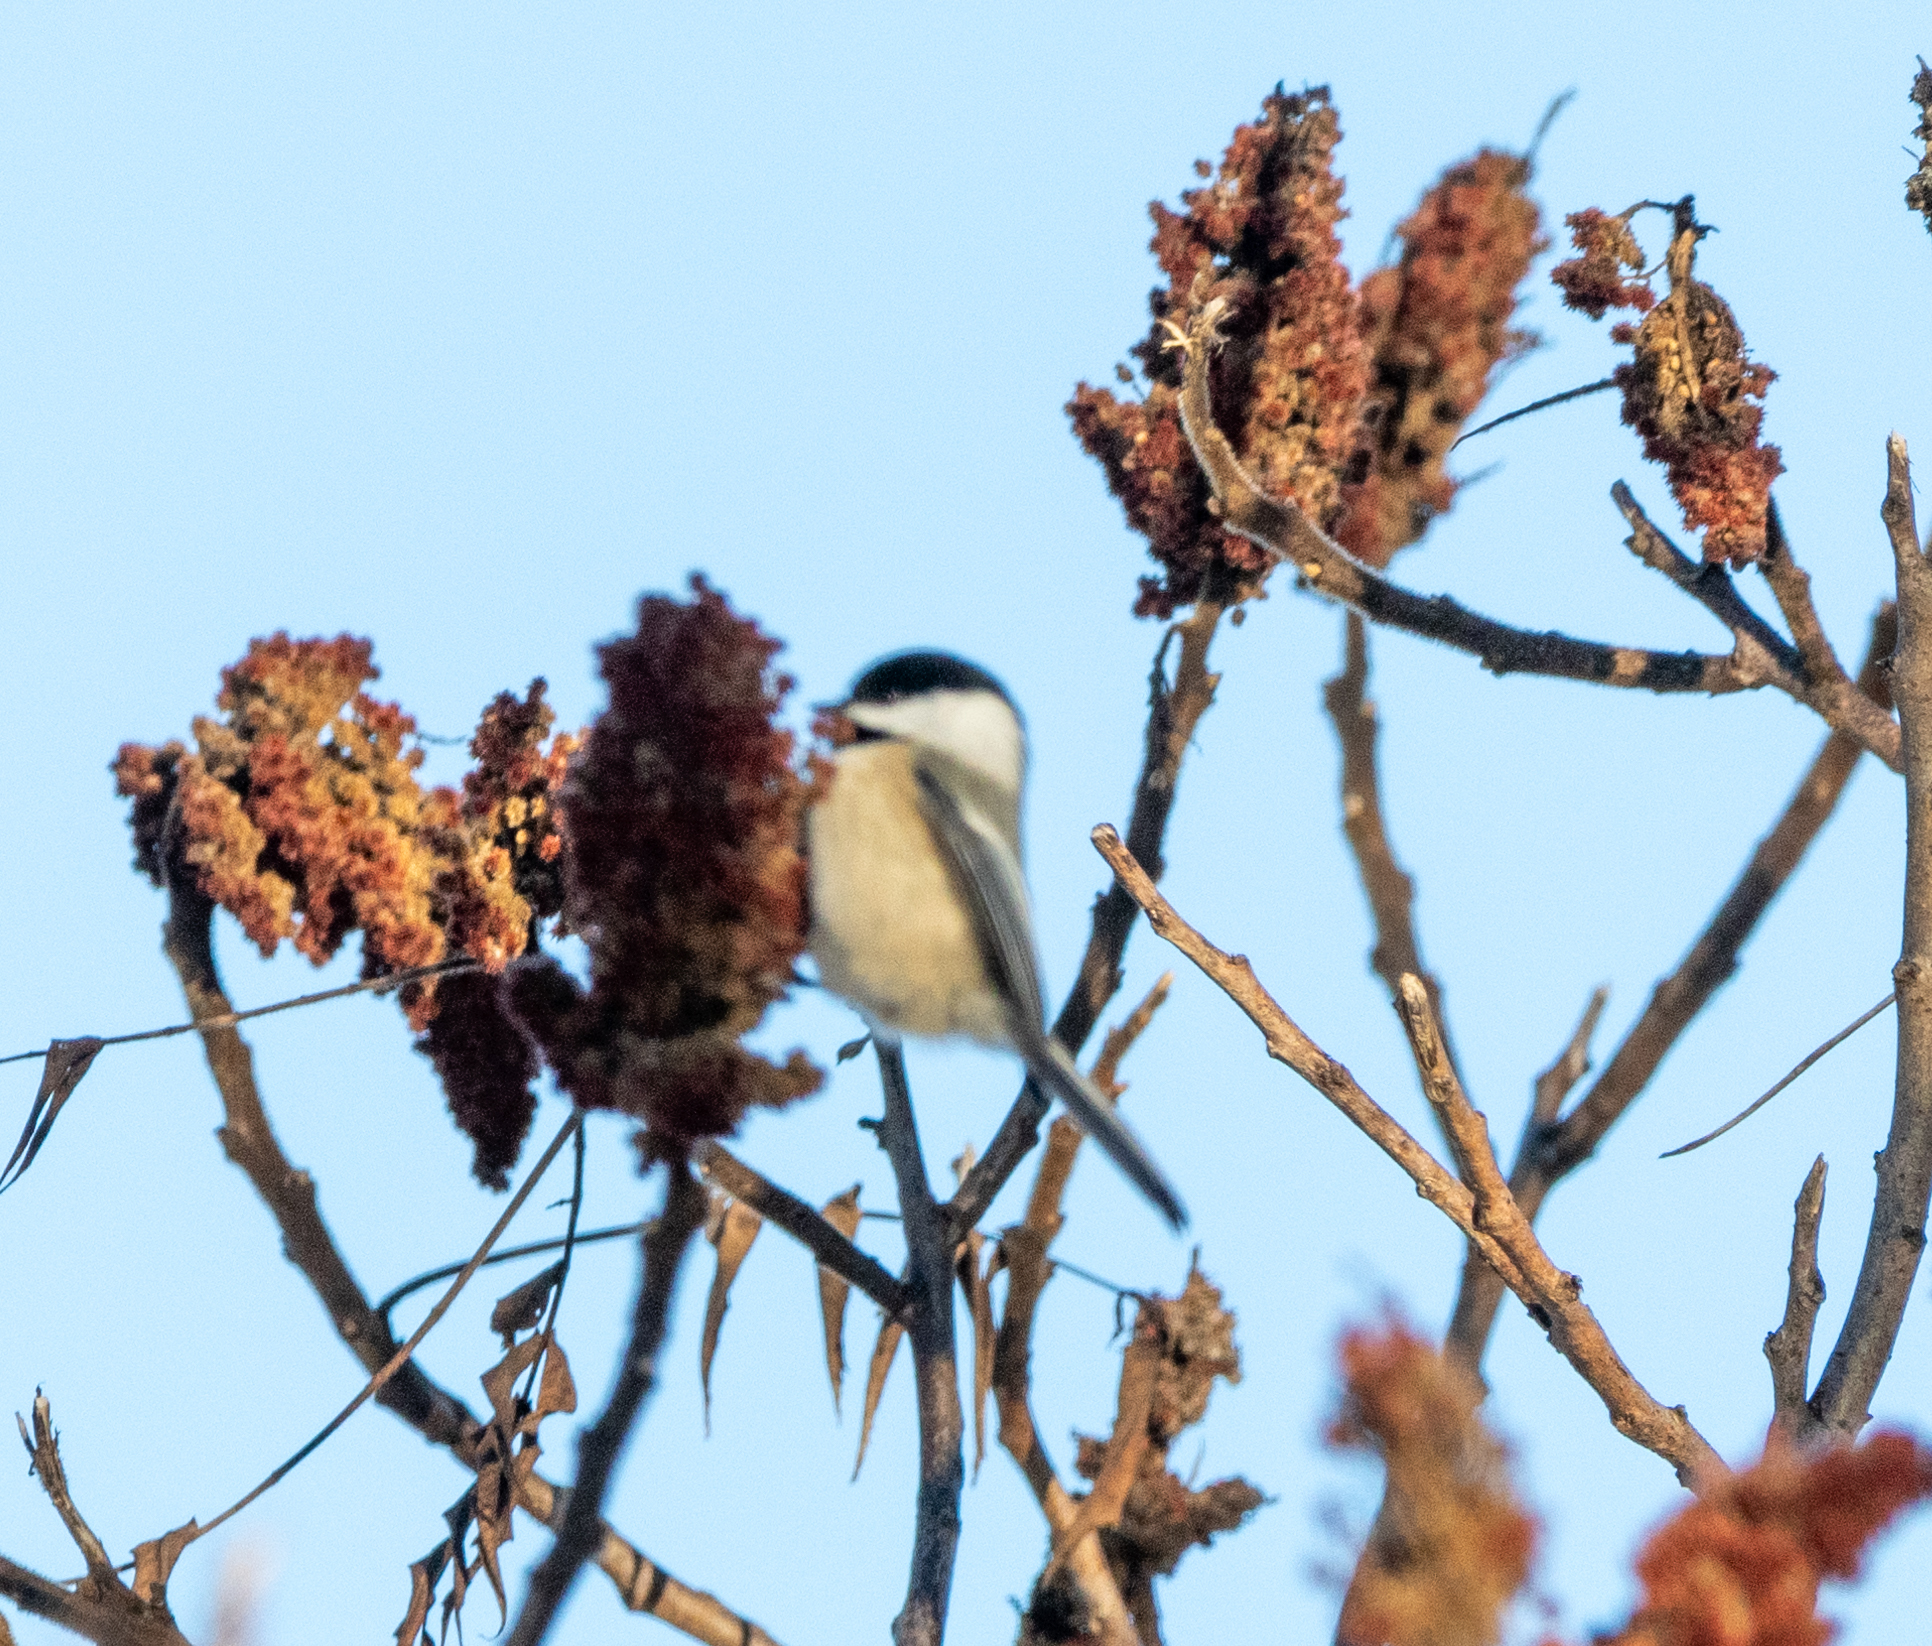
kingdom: Animalia
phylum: Chordata
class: Aves
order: Passeriformes
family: Paridae
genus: Poecile
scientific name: Poecile atricapillus
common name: Black-capped chickadee
